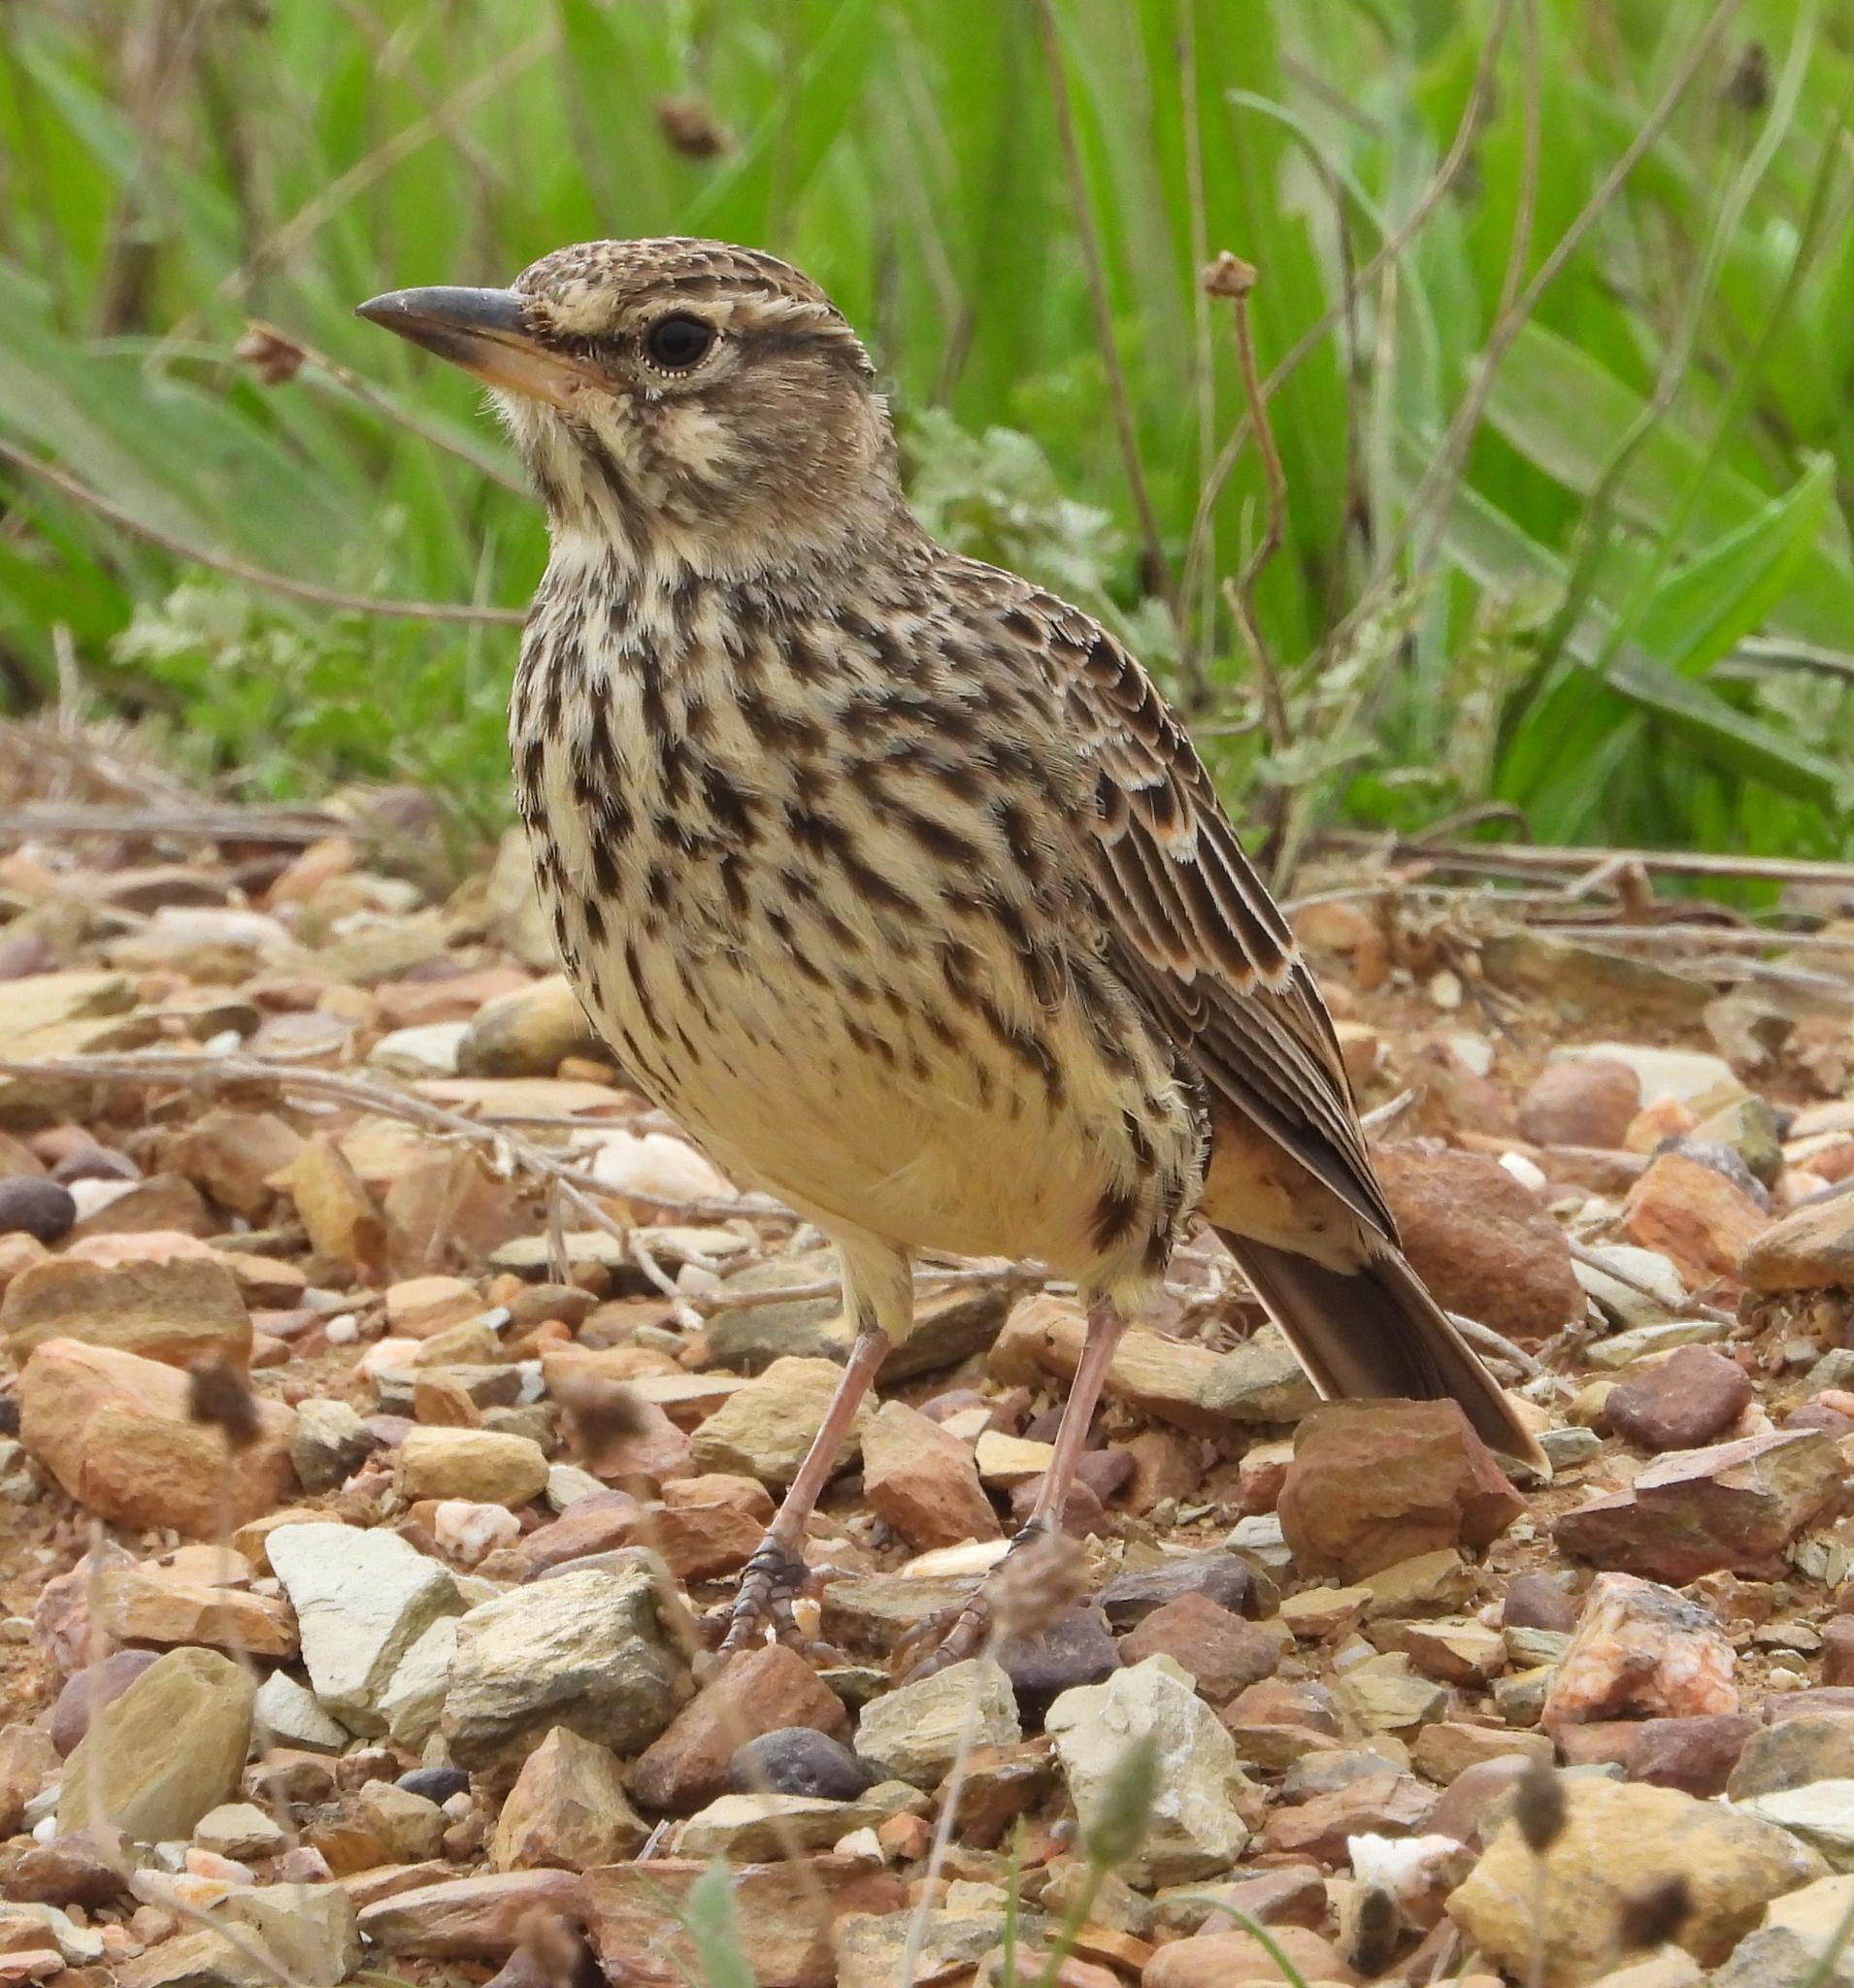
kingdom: Animalia
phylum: Chordata
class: Aves
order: Passeriformes
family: Alaudidae
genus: Galerida
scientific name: Galerida magnirostris
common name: Large-billed lark
